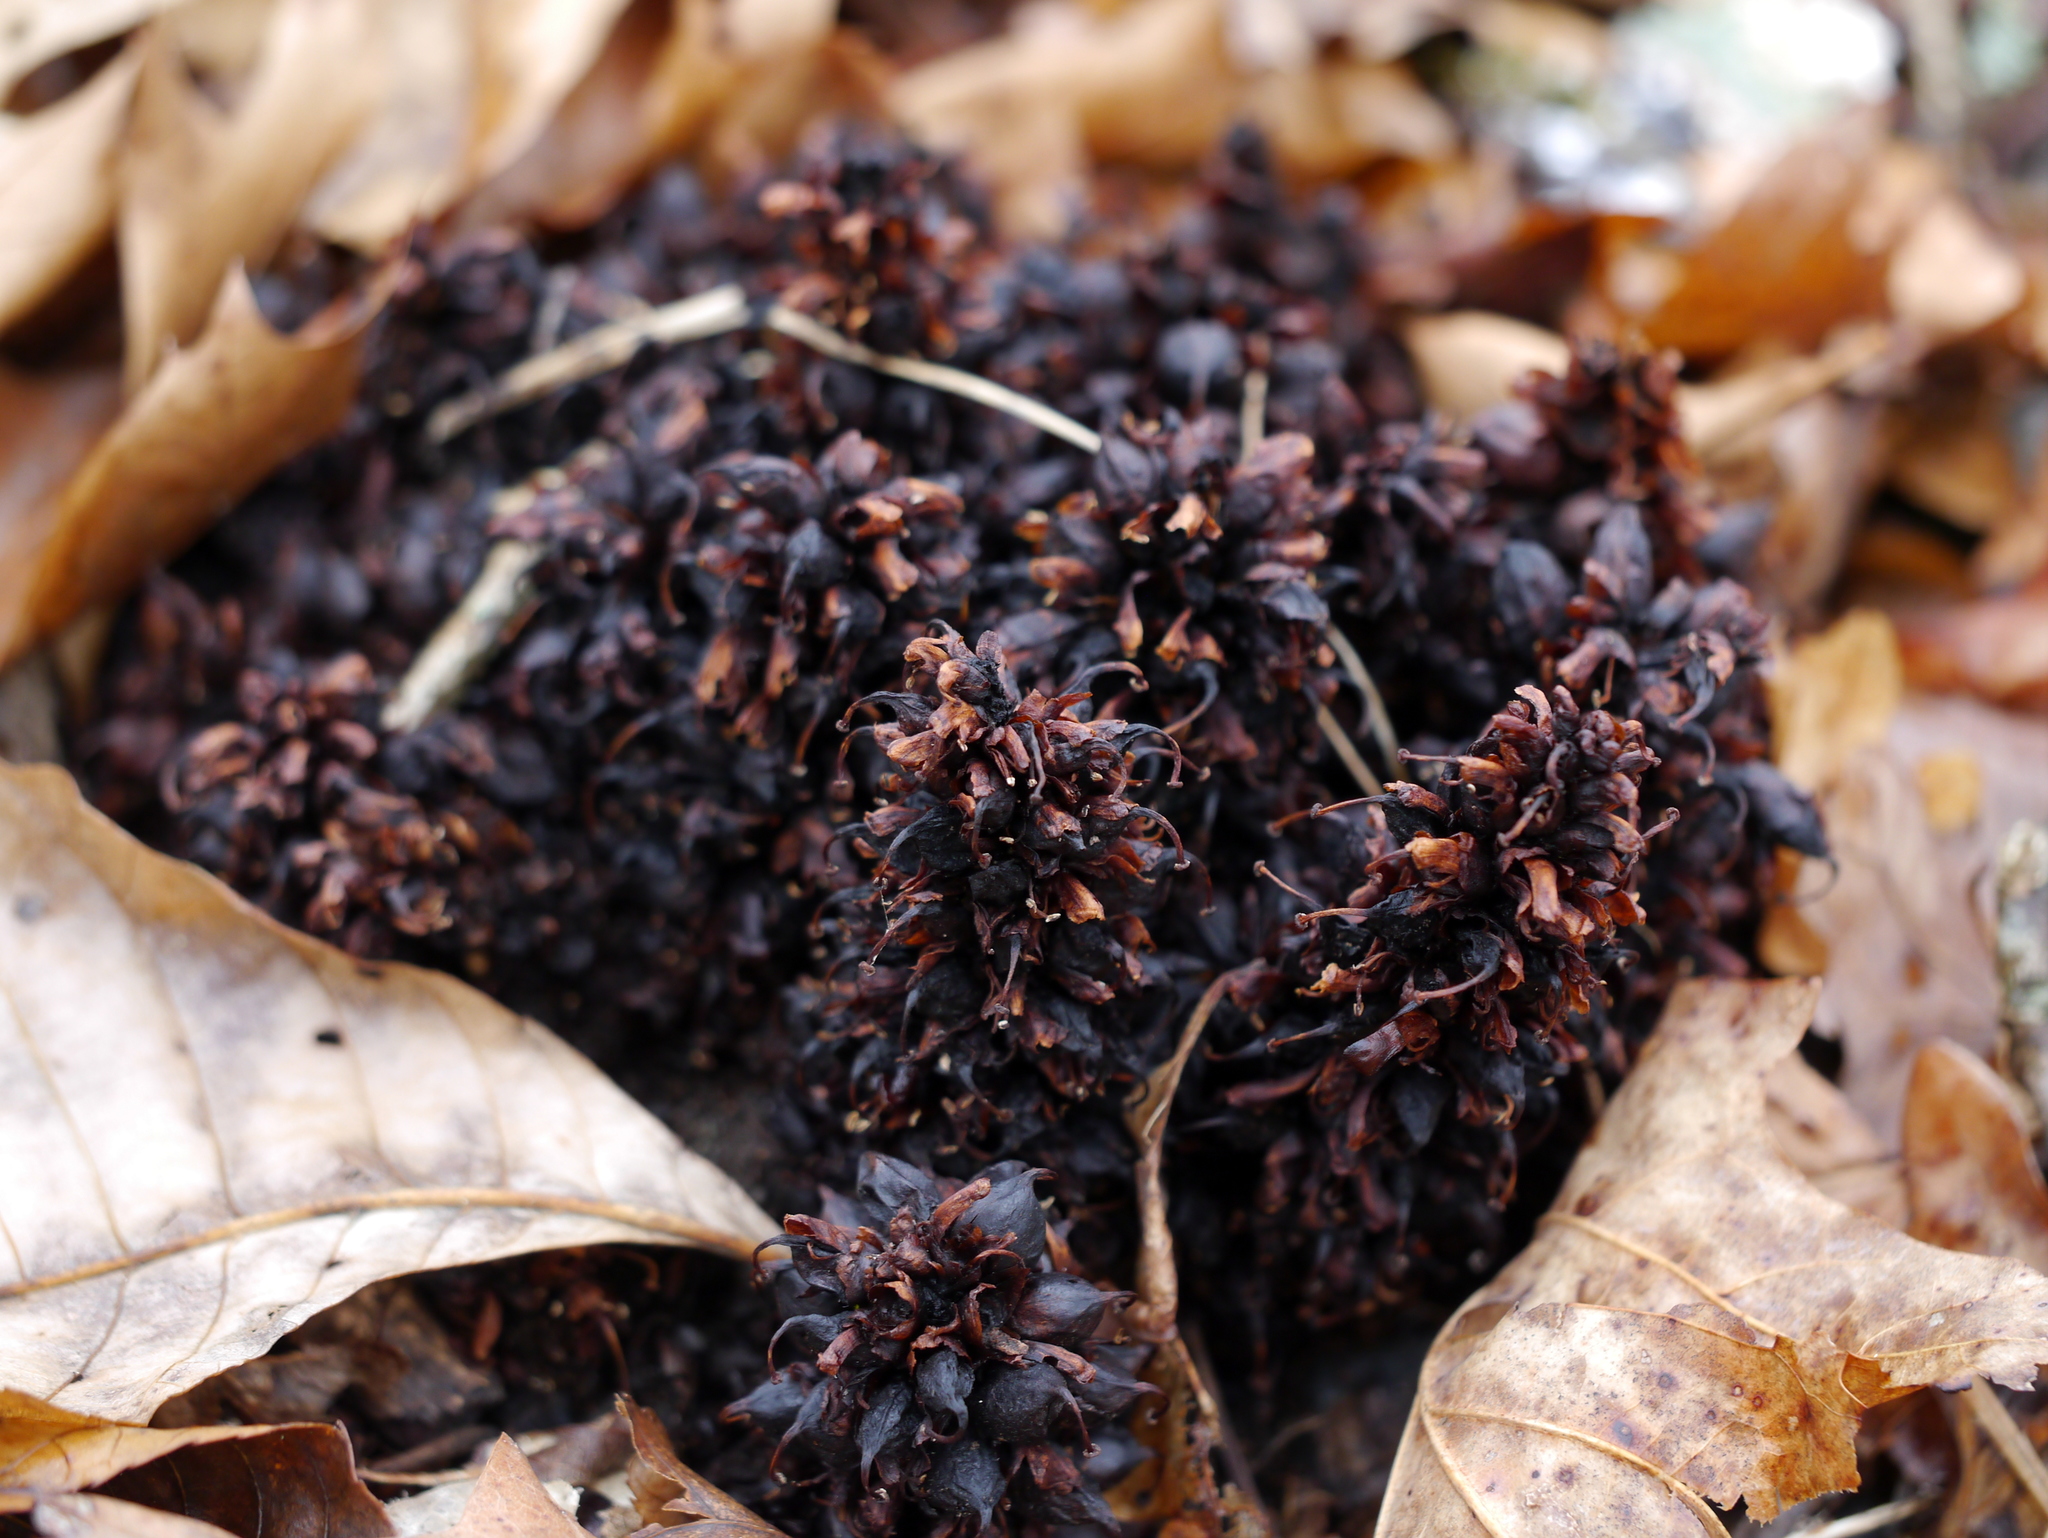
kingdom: Plantae
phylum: Tracheophyta
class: Magnoliopsida
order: Lamiales
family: Orobanchaceae
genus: Conopholis
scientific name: Conopholis americana
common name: American cancer-root
